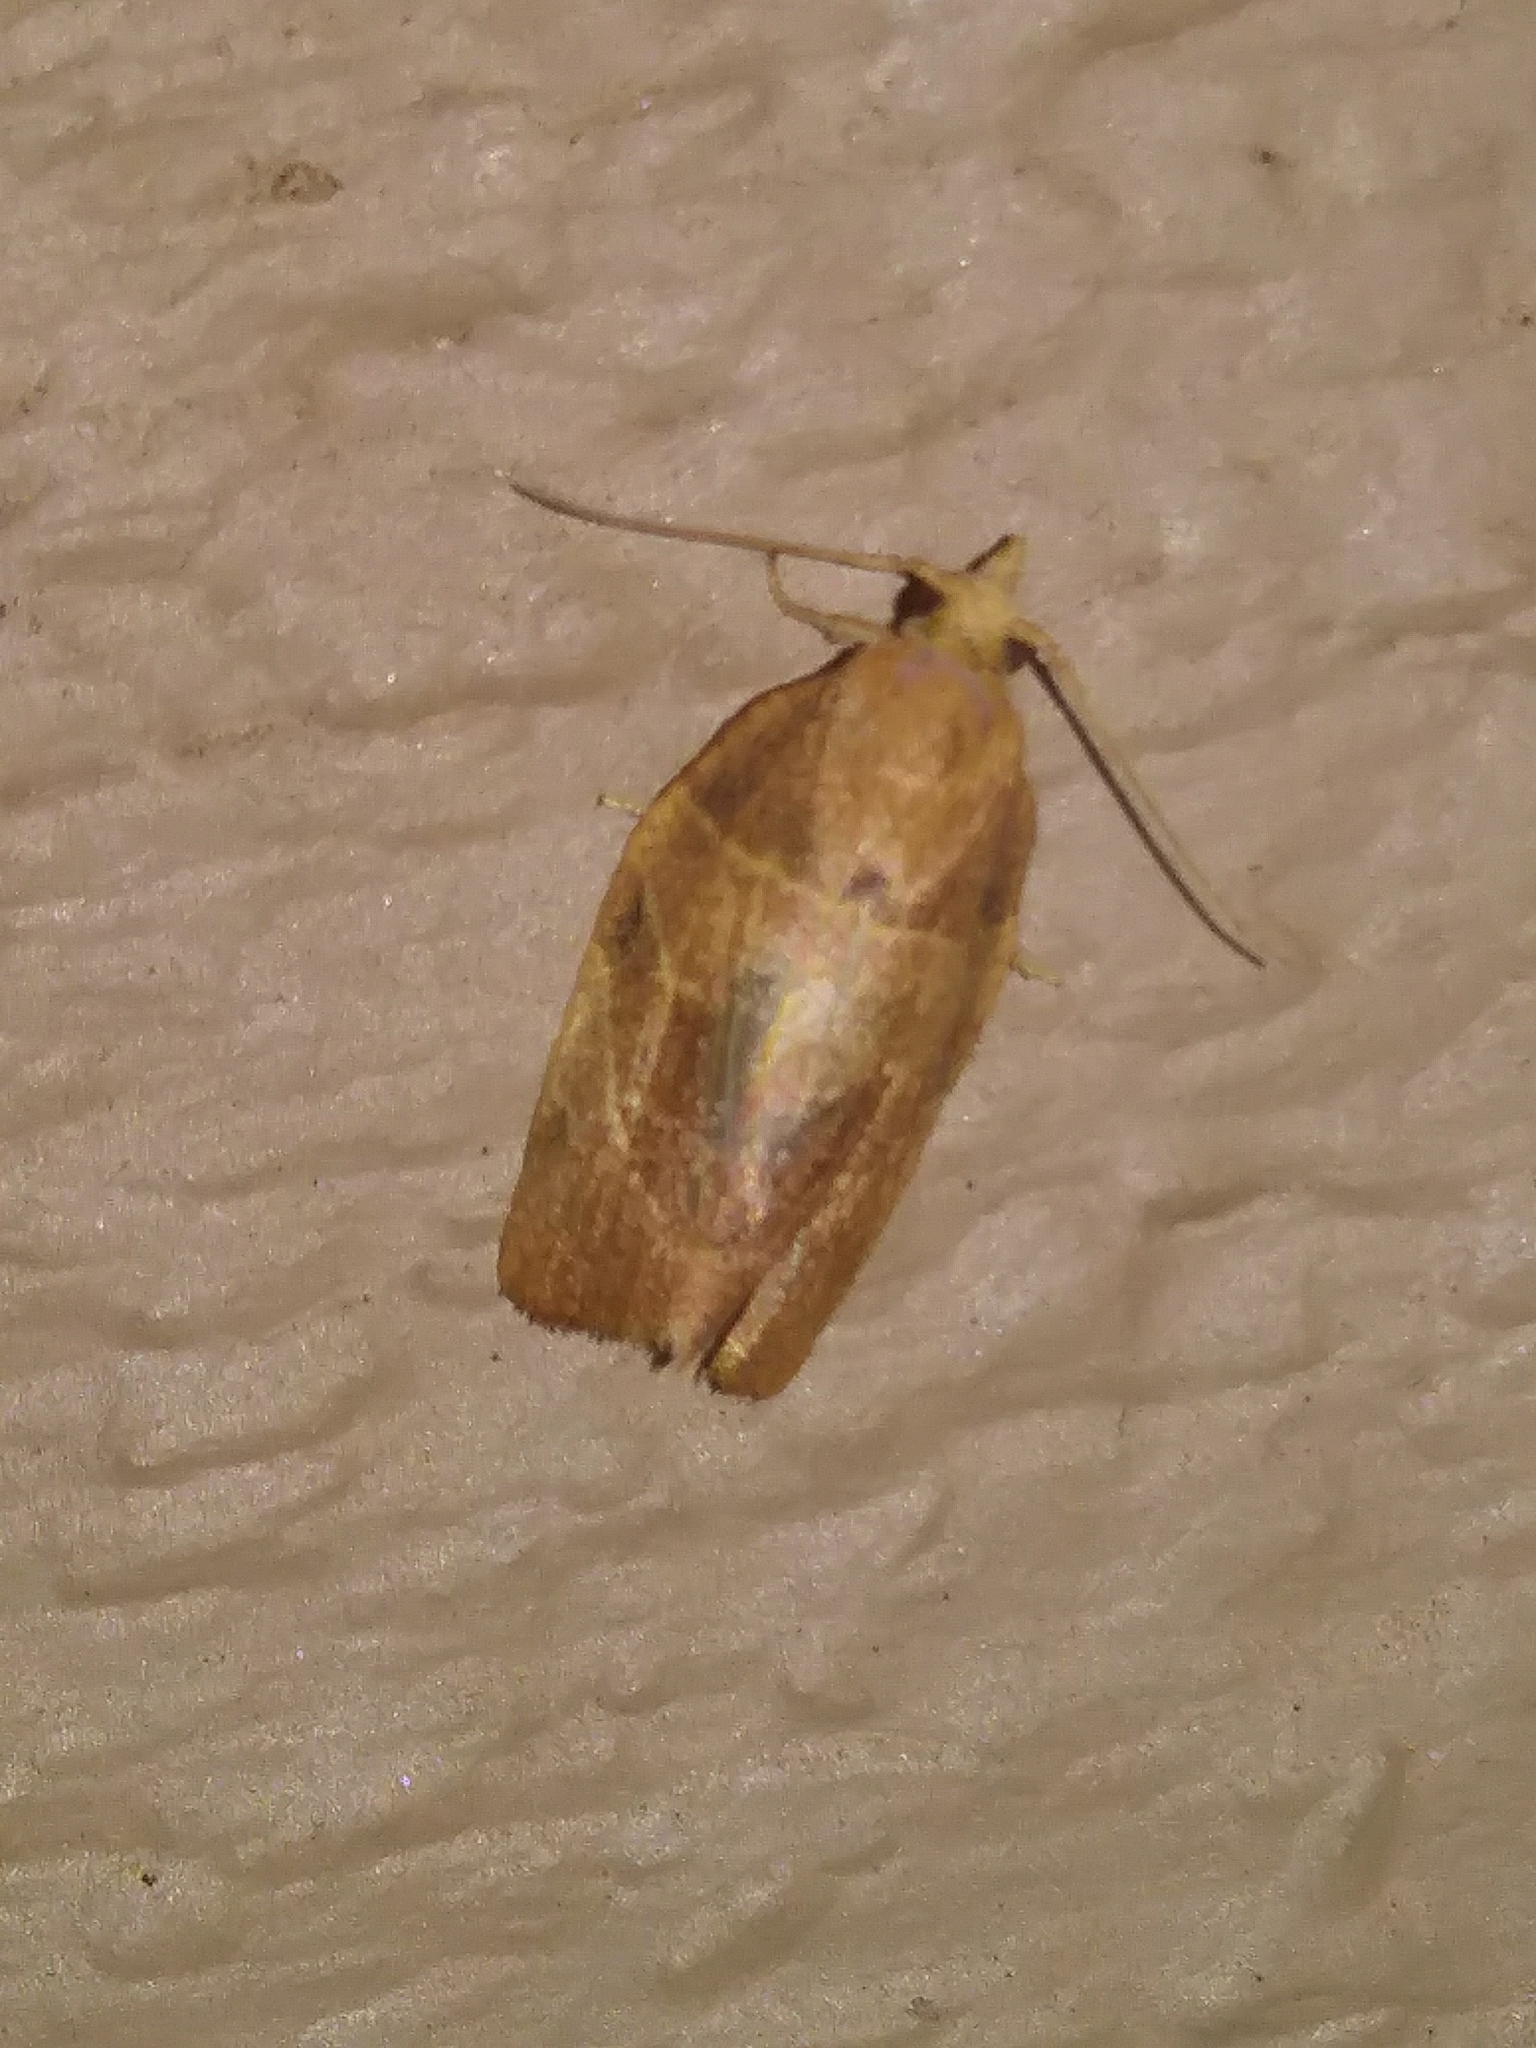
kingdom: Animalia
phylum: Arthropoda
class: Insecta
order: Lepidoptera
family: Tortricidae
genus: Pandemis
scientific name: Pandemis limitata
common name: Three-lined leafroller moth
